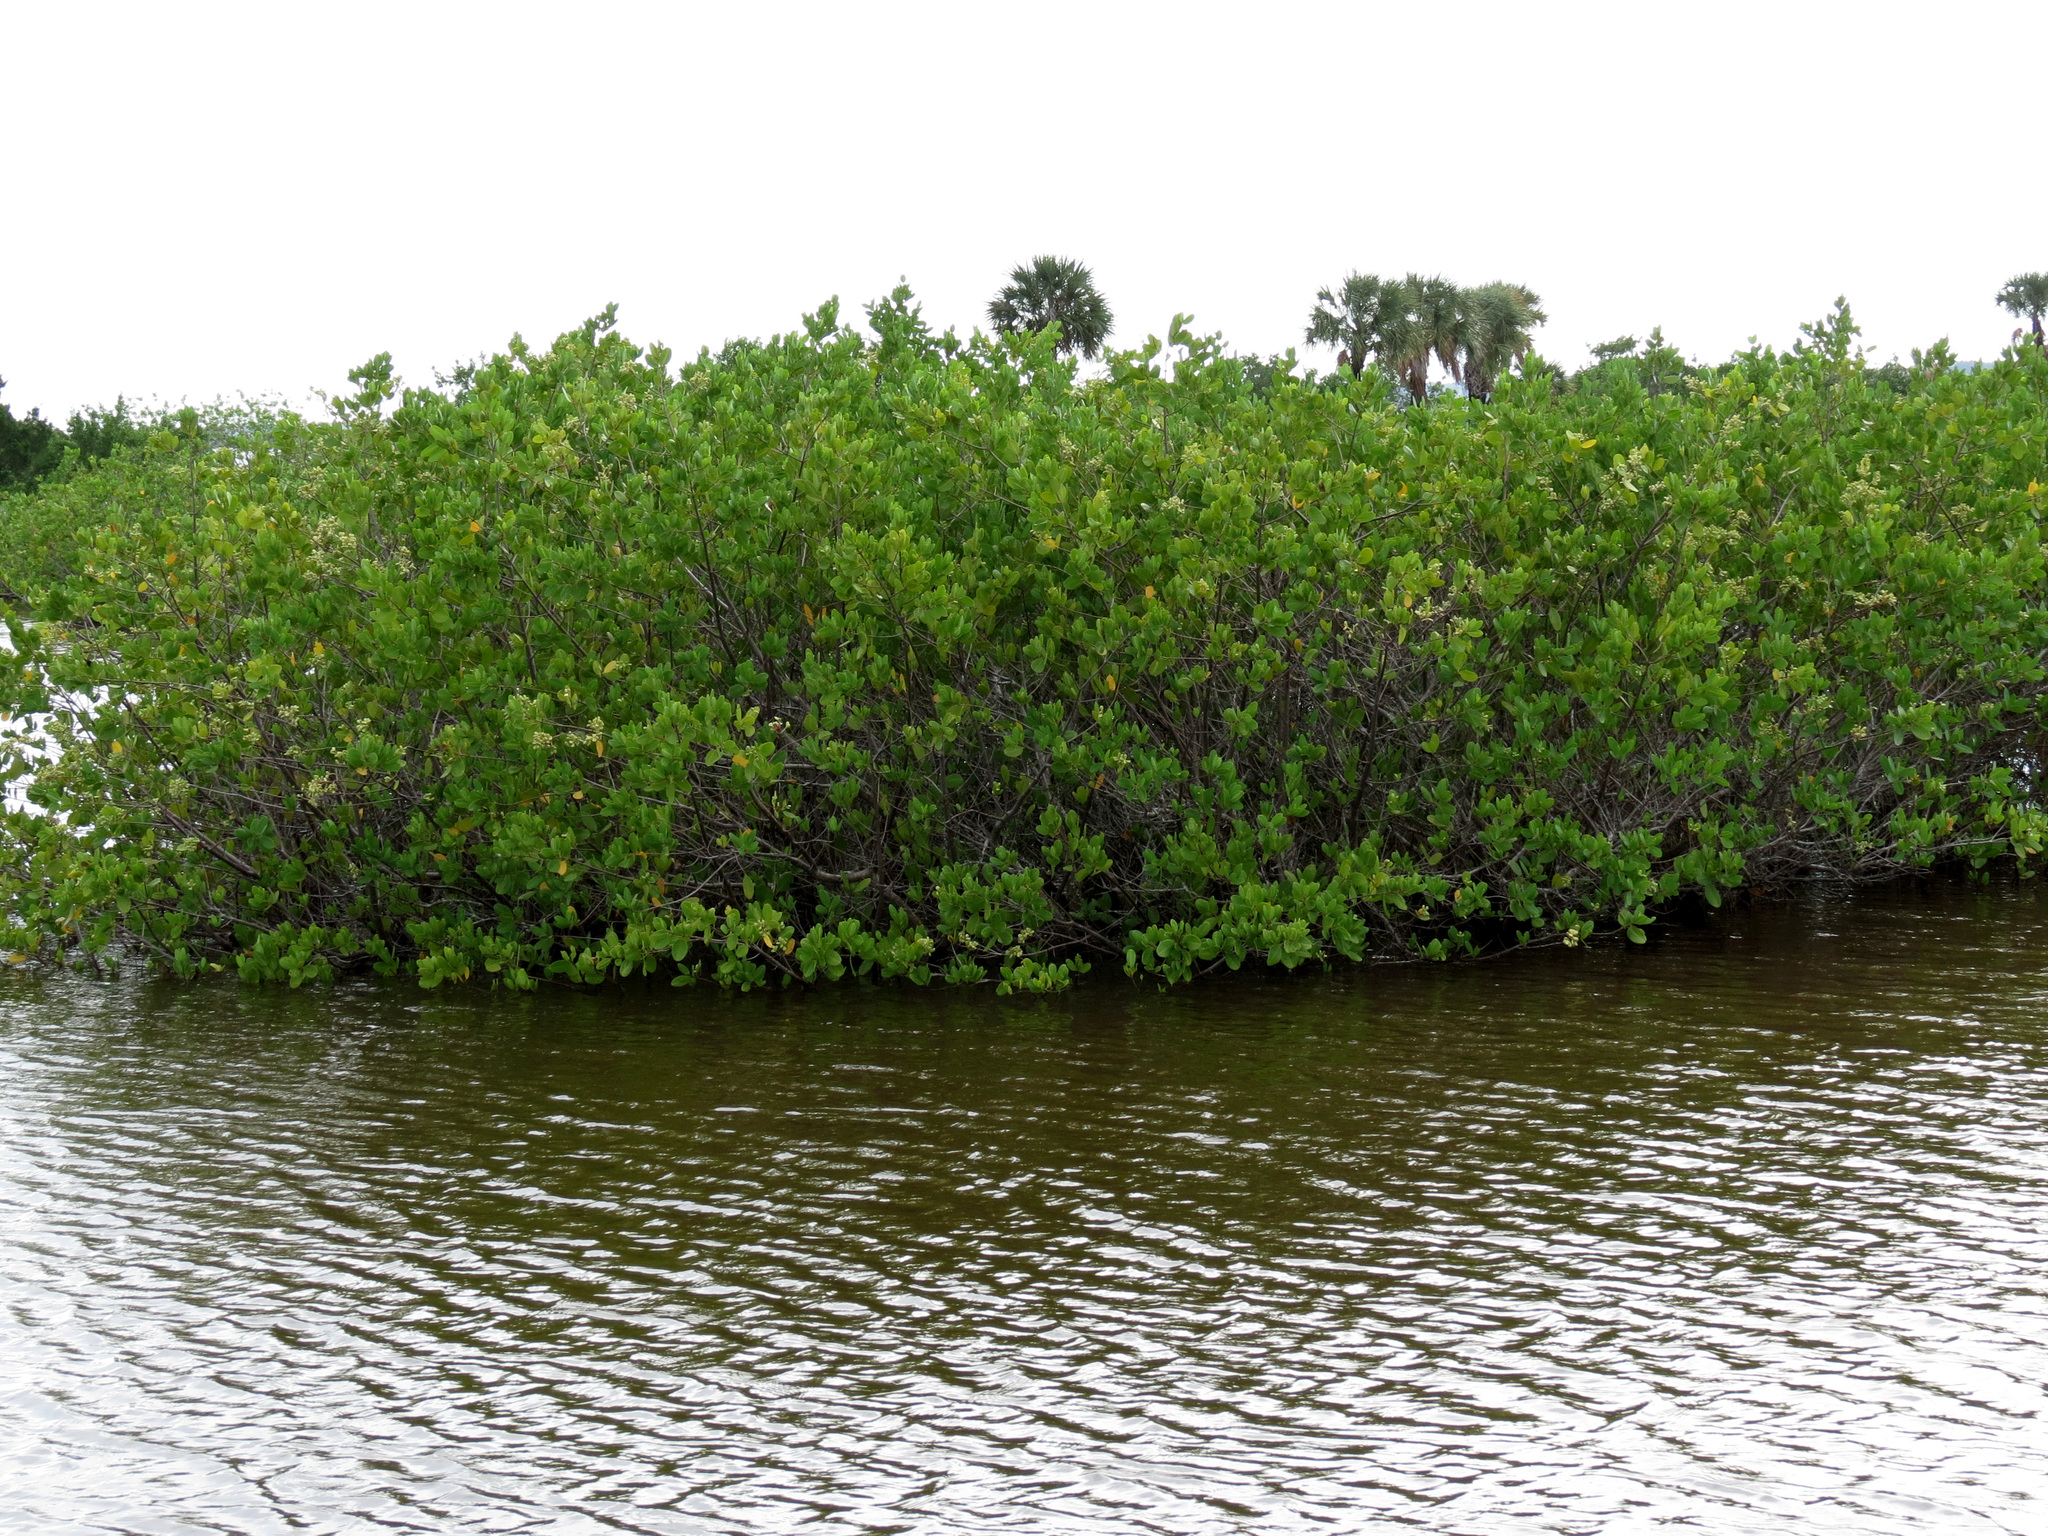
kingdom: Plantae
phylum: Tracheophyta
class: Magnoliopsida
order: Myrtales
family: Combretaceae
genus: Laguncularia
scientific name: Laguncularia racemosa
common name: White mangrove
